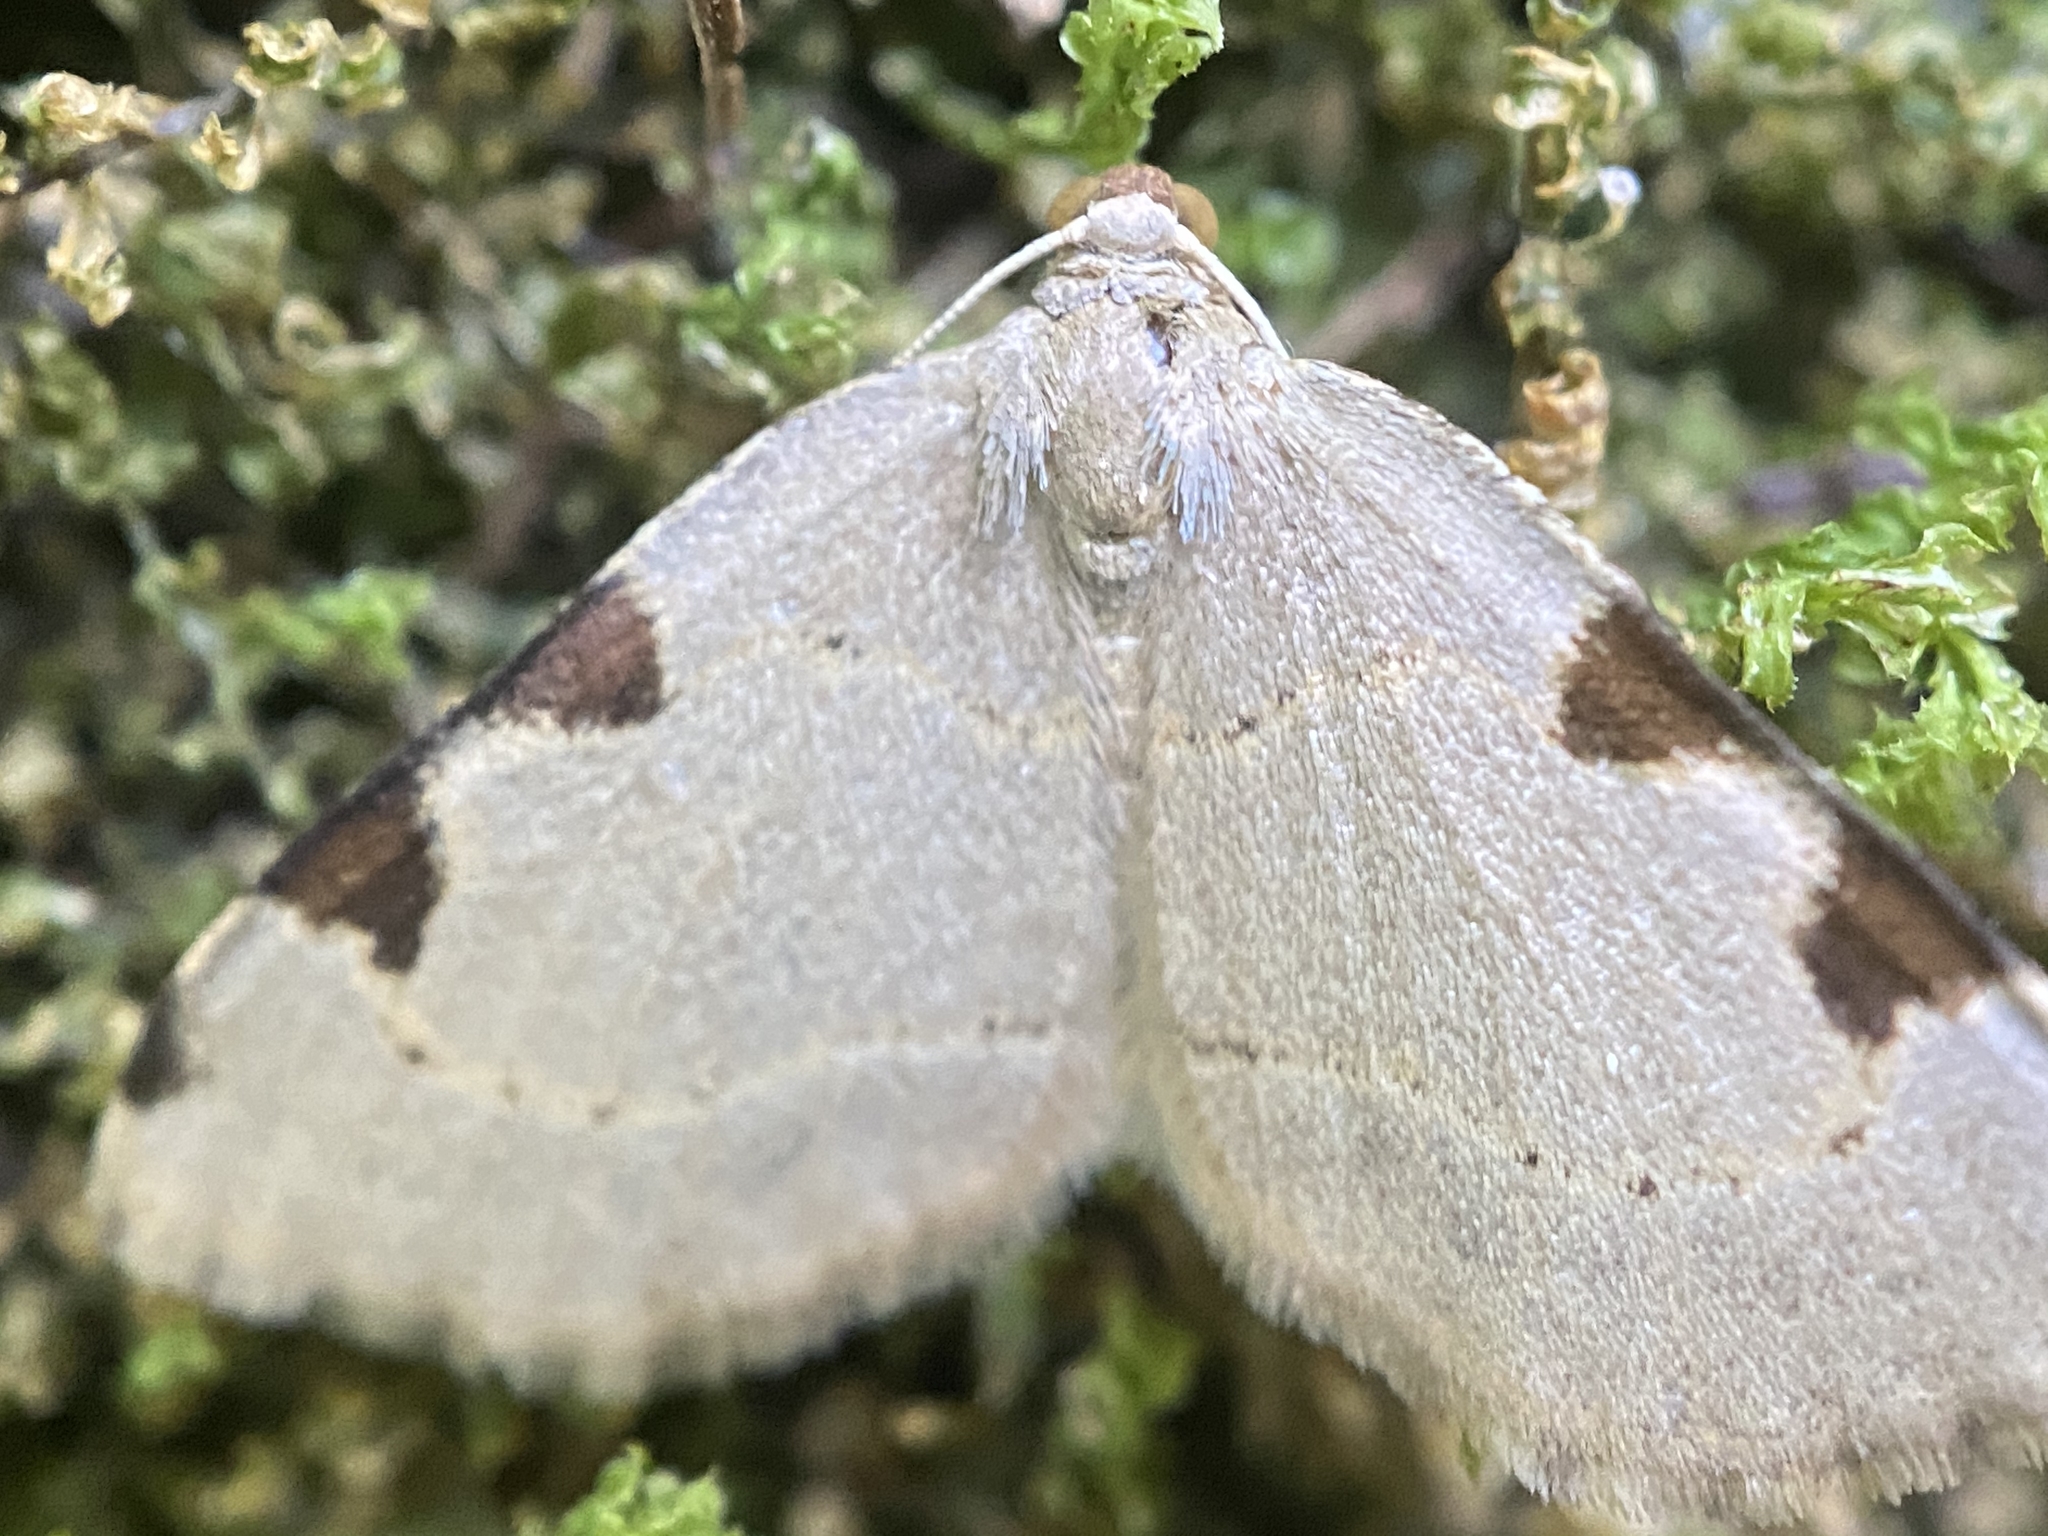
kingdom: Animalia
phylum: Arthropoda
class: Insecta
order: Lepidoptera
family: Geometridae
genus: Heterophleps
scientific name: Heterophleps triguttaria
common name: Three-spotted fillip
